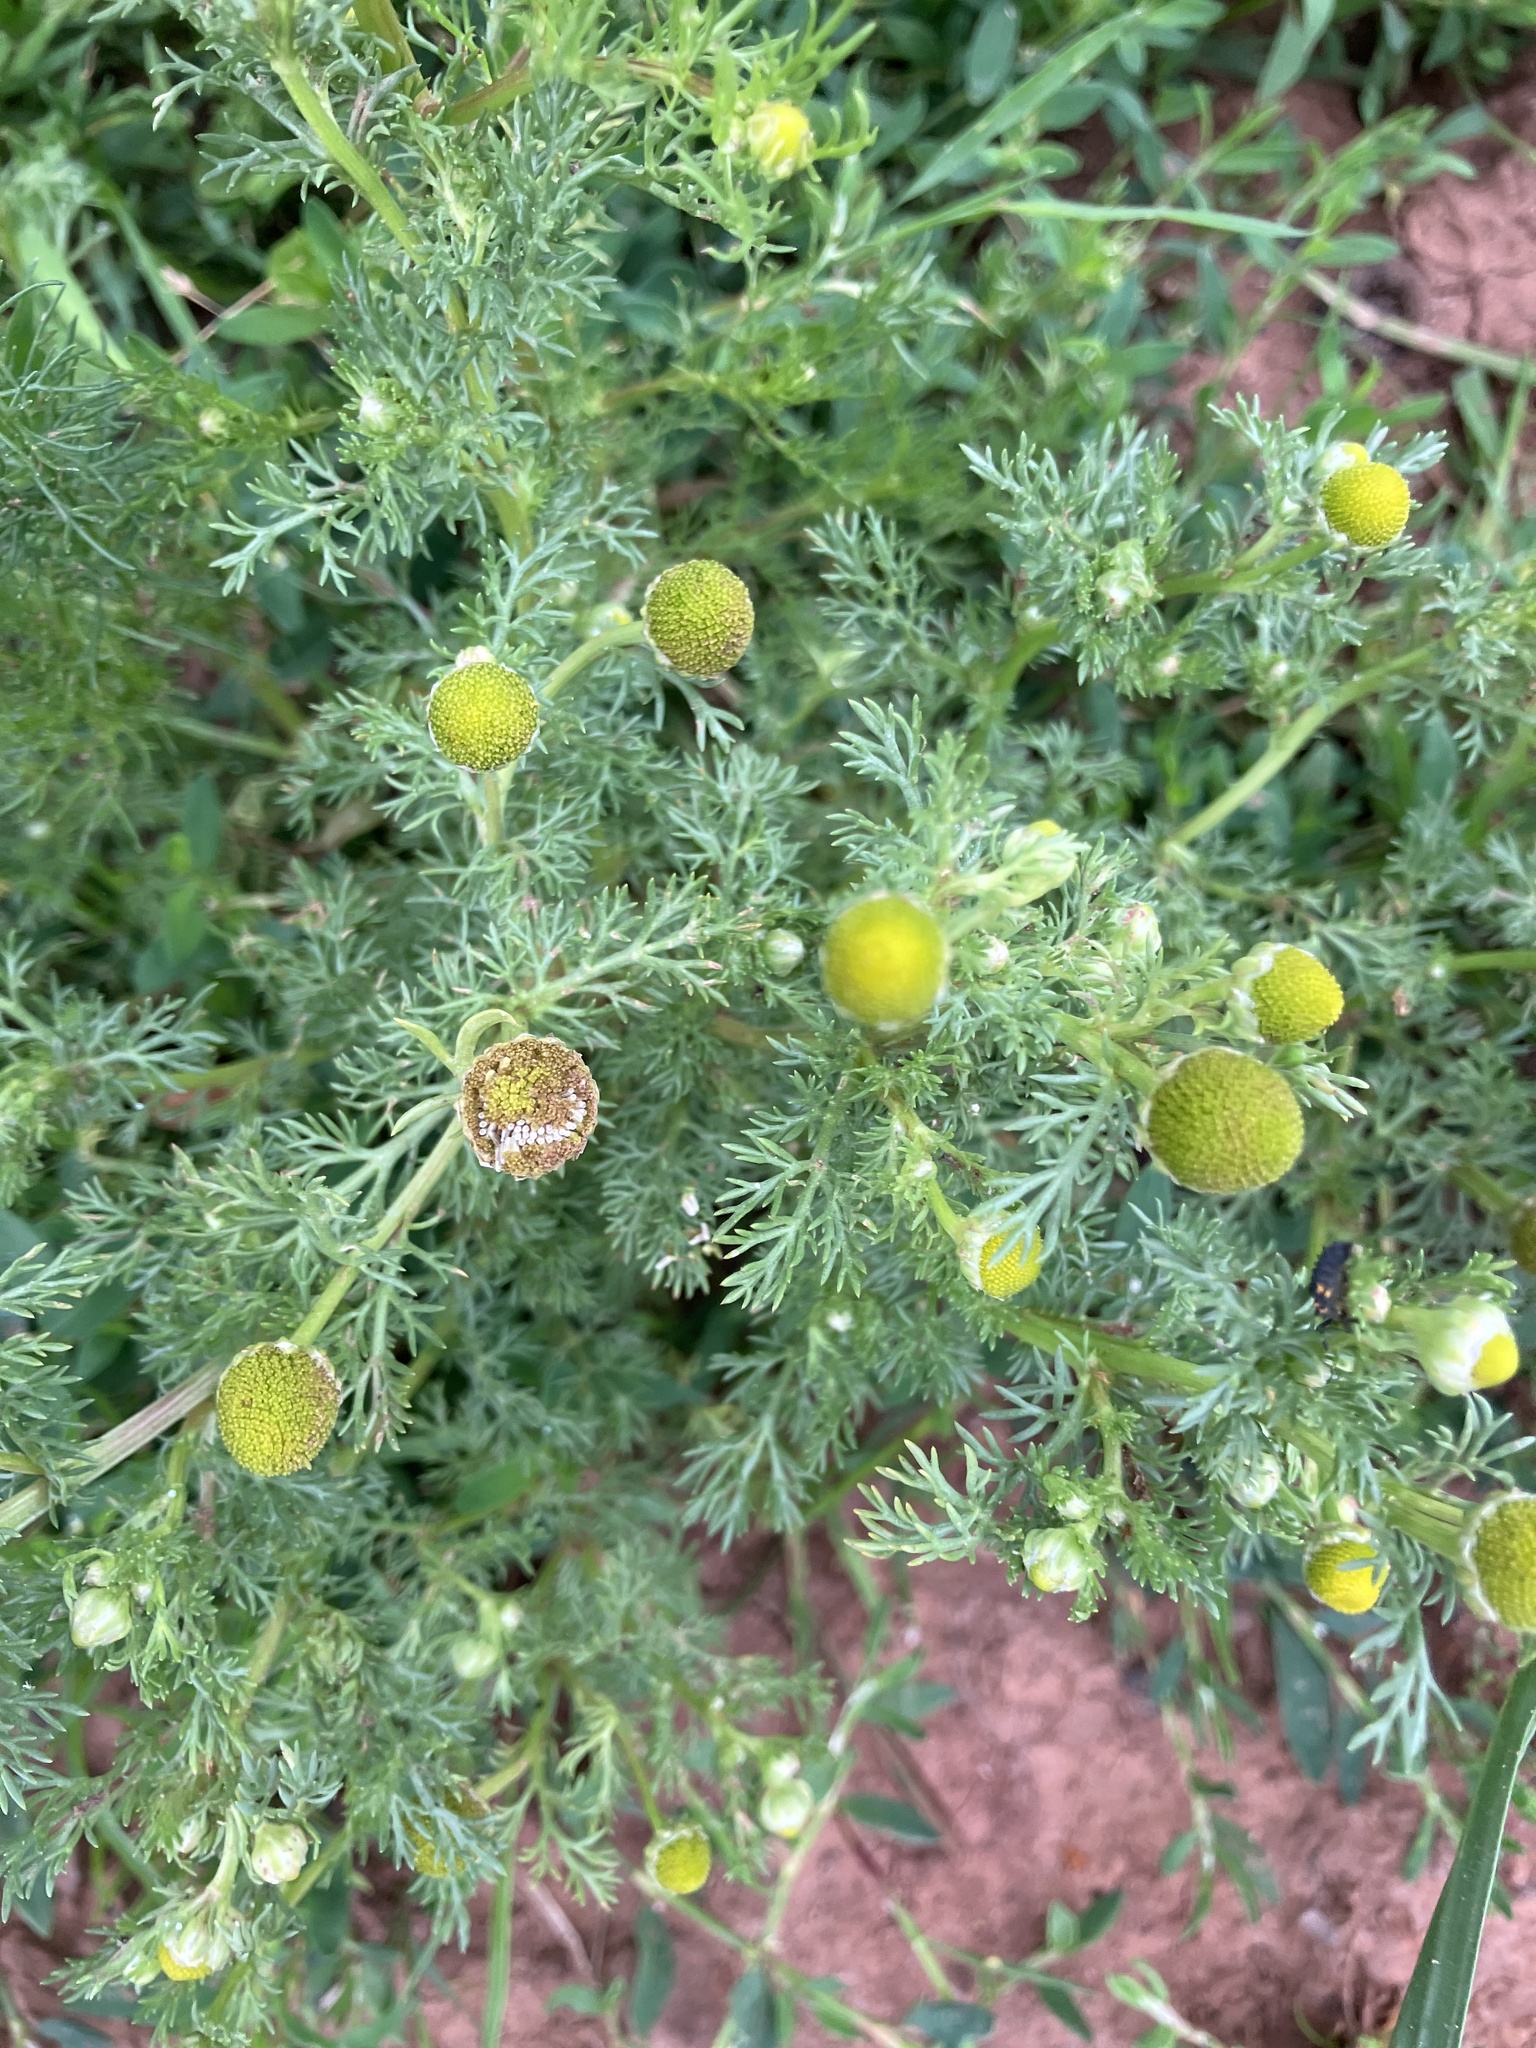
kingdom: Plantae
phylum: Tracheophyta
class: Magnoliopsida
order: Asterales
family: Asteraceae
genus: Matricaria
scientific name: Matricaria discoidea
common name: Disc mayweed
